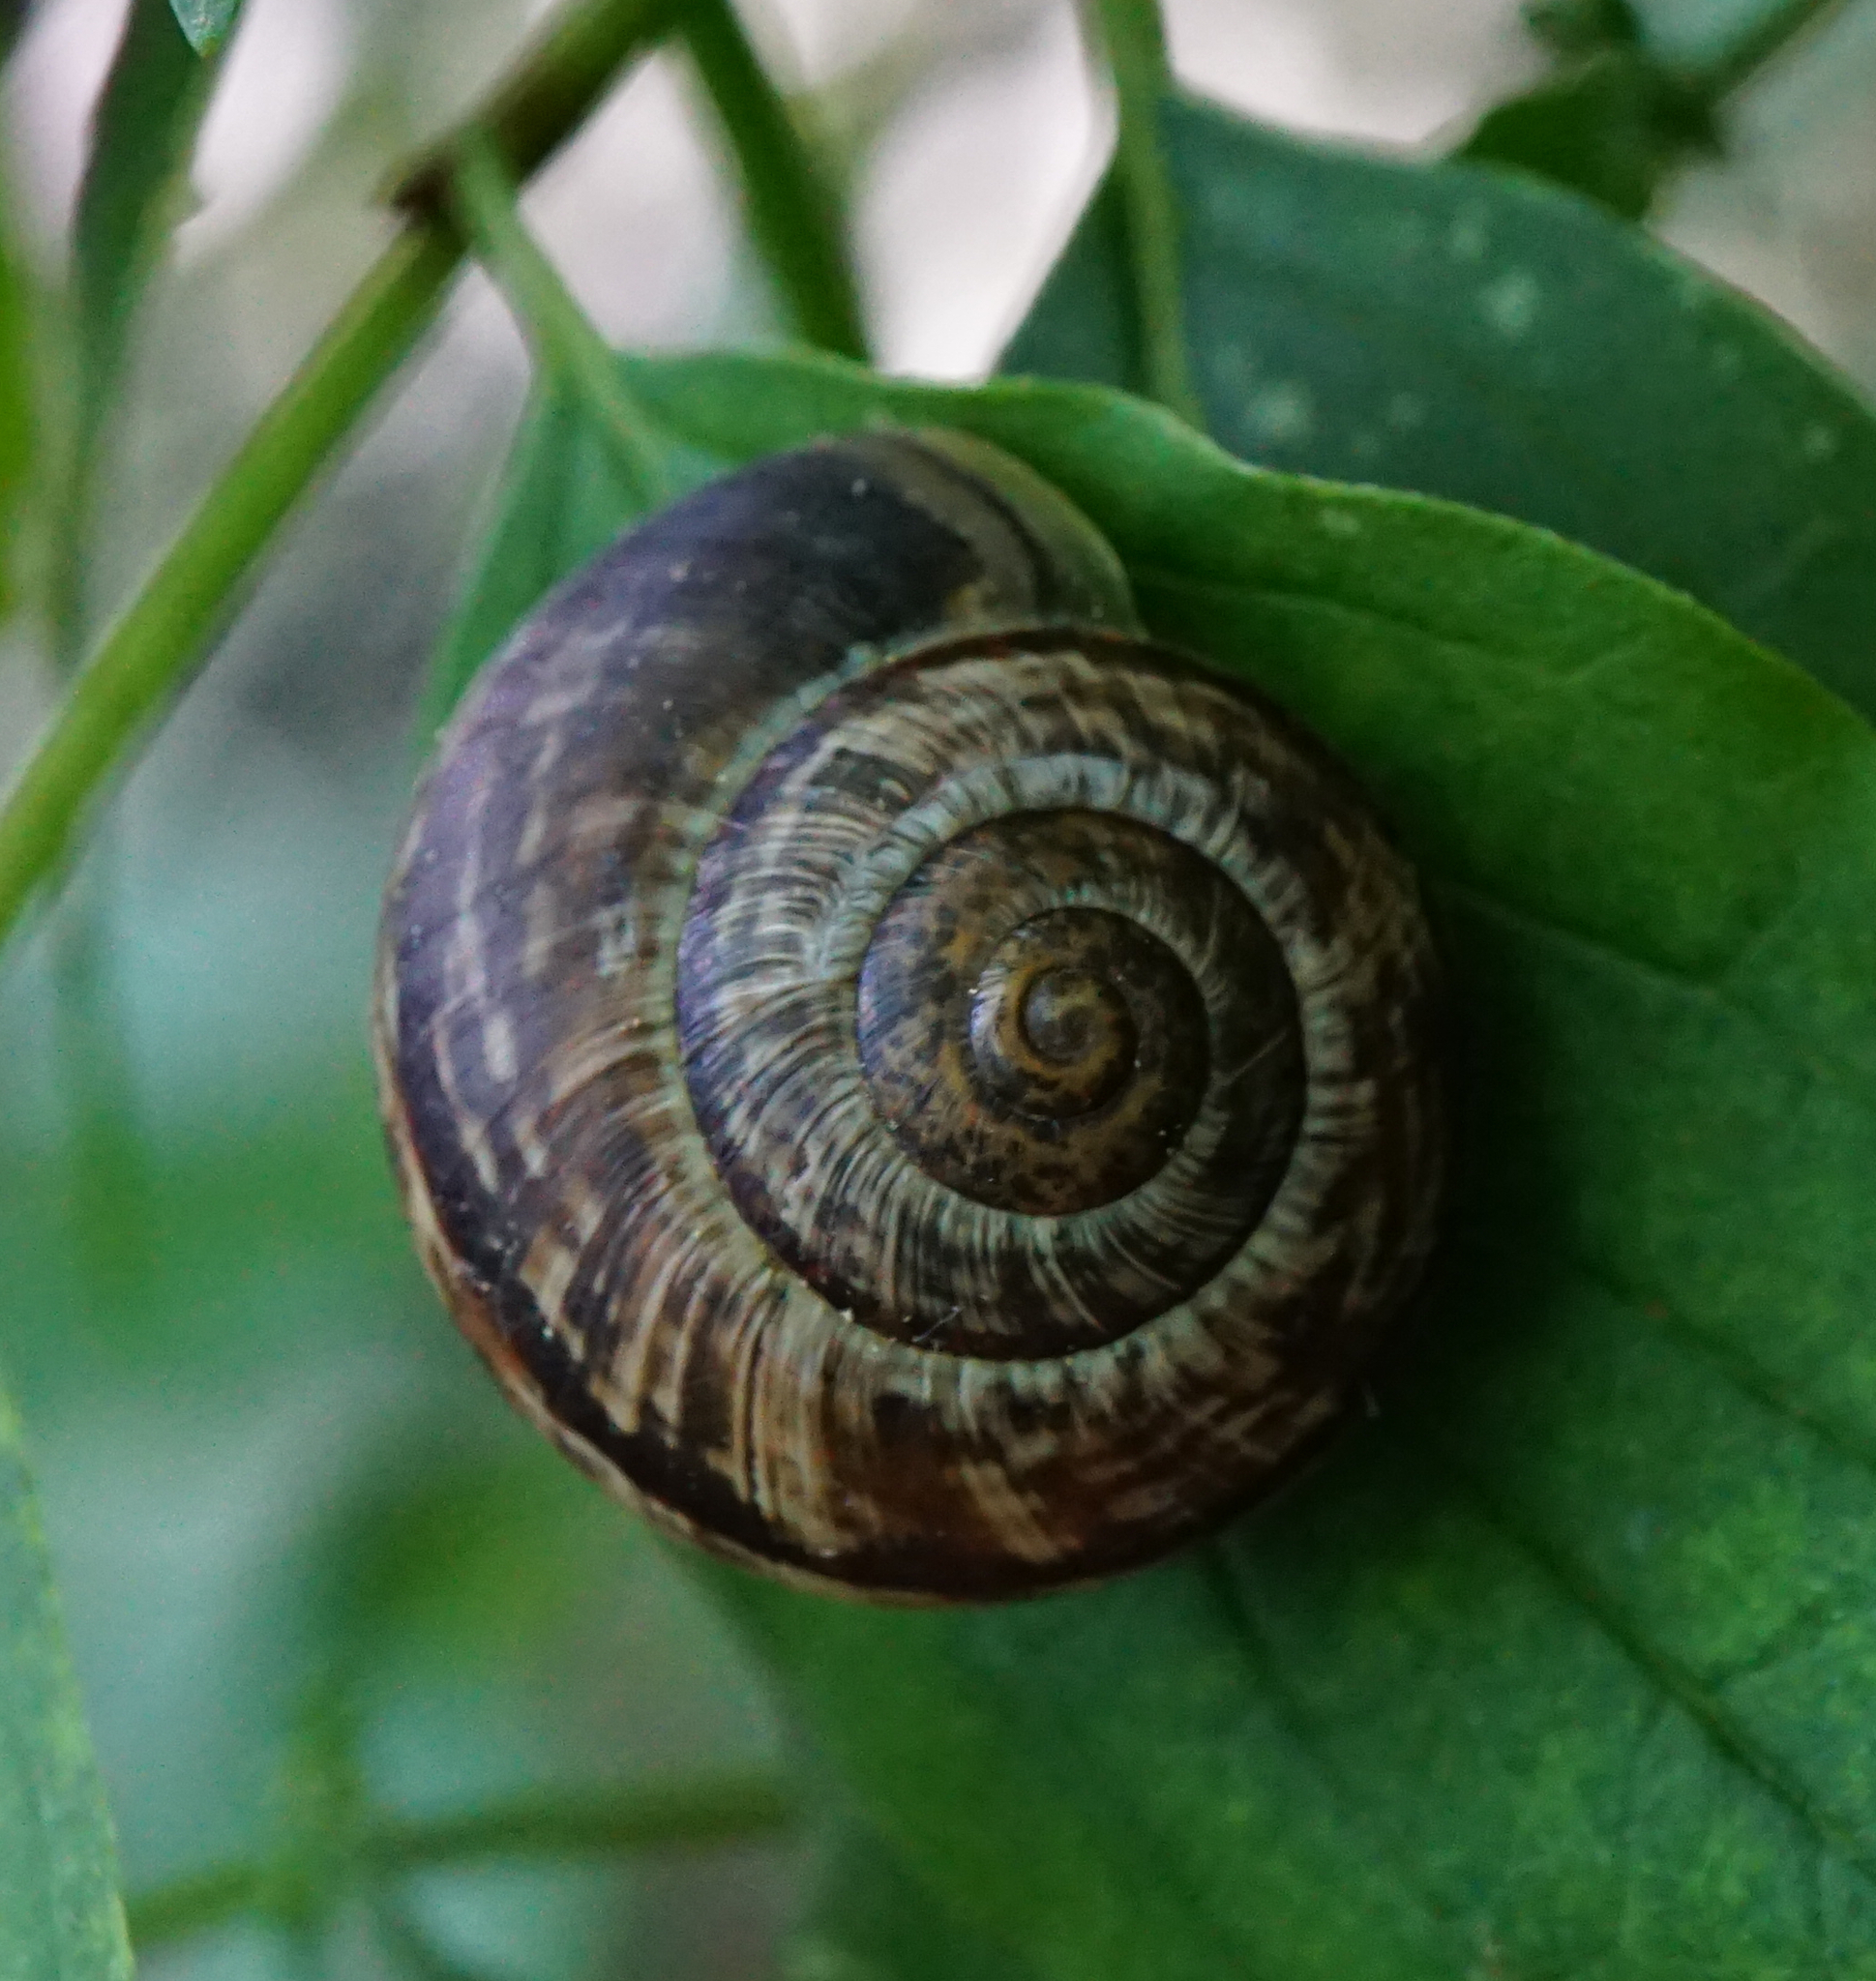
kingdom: Animalia
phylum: Mollusca
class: Gastropoda
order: Stylommatophora
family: Helicidae
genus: Arianta
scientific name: Arianta arbustorum
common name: Copse snail
